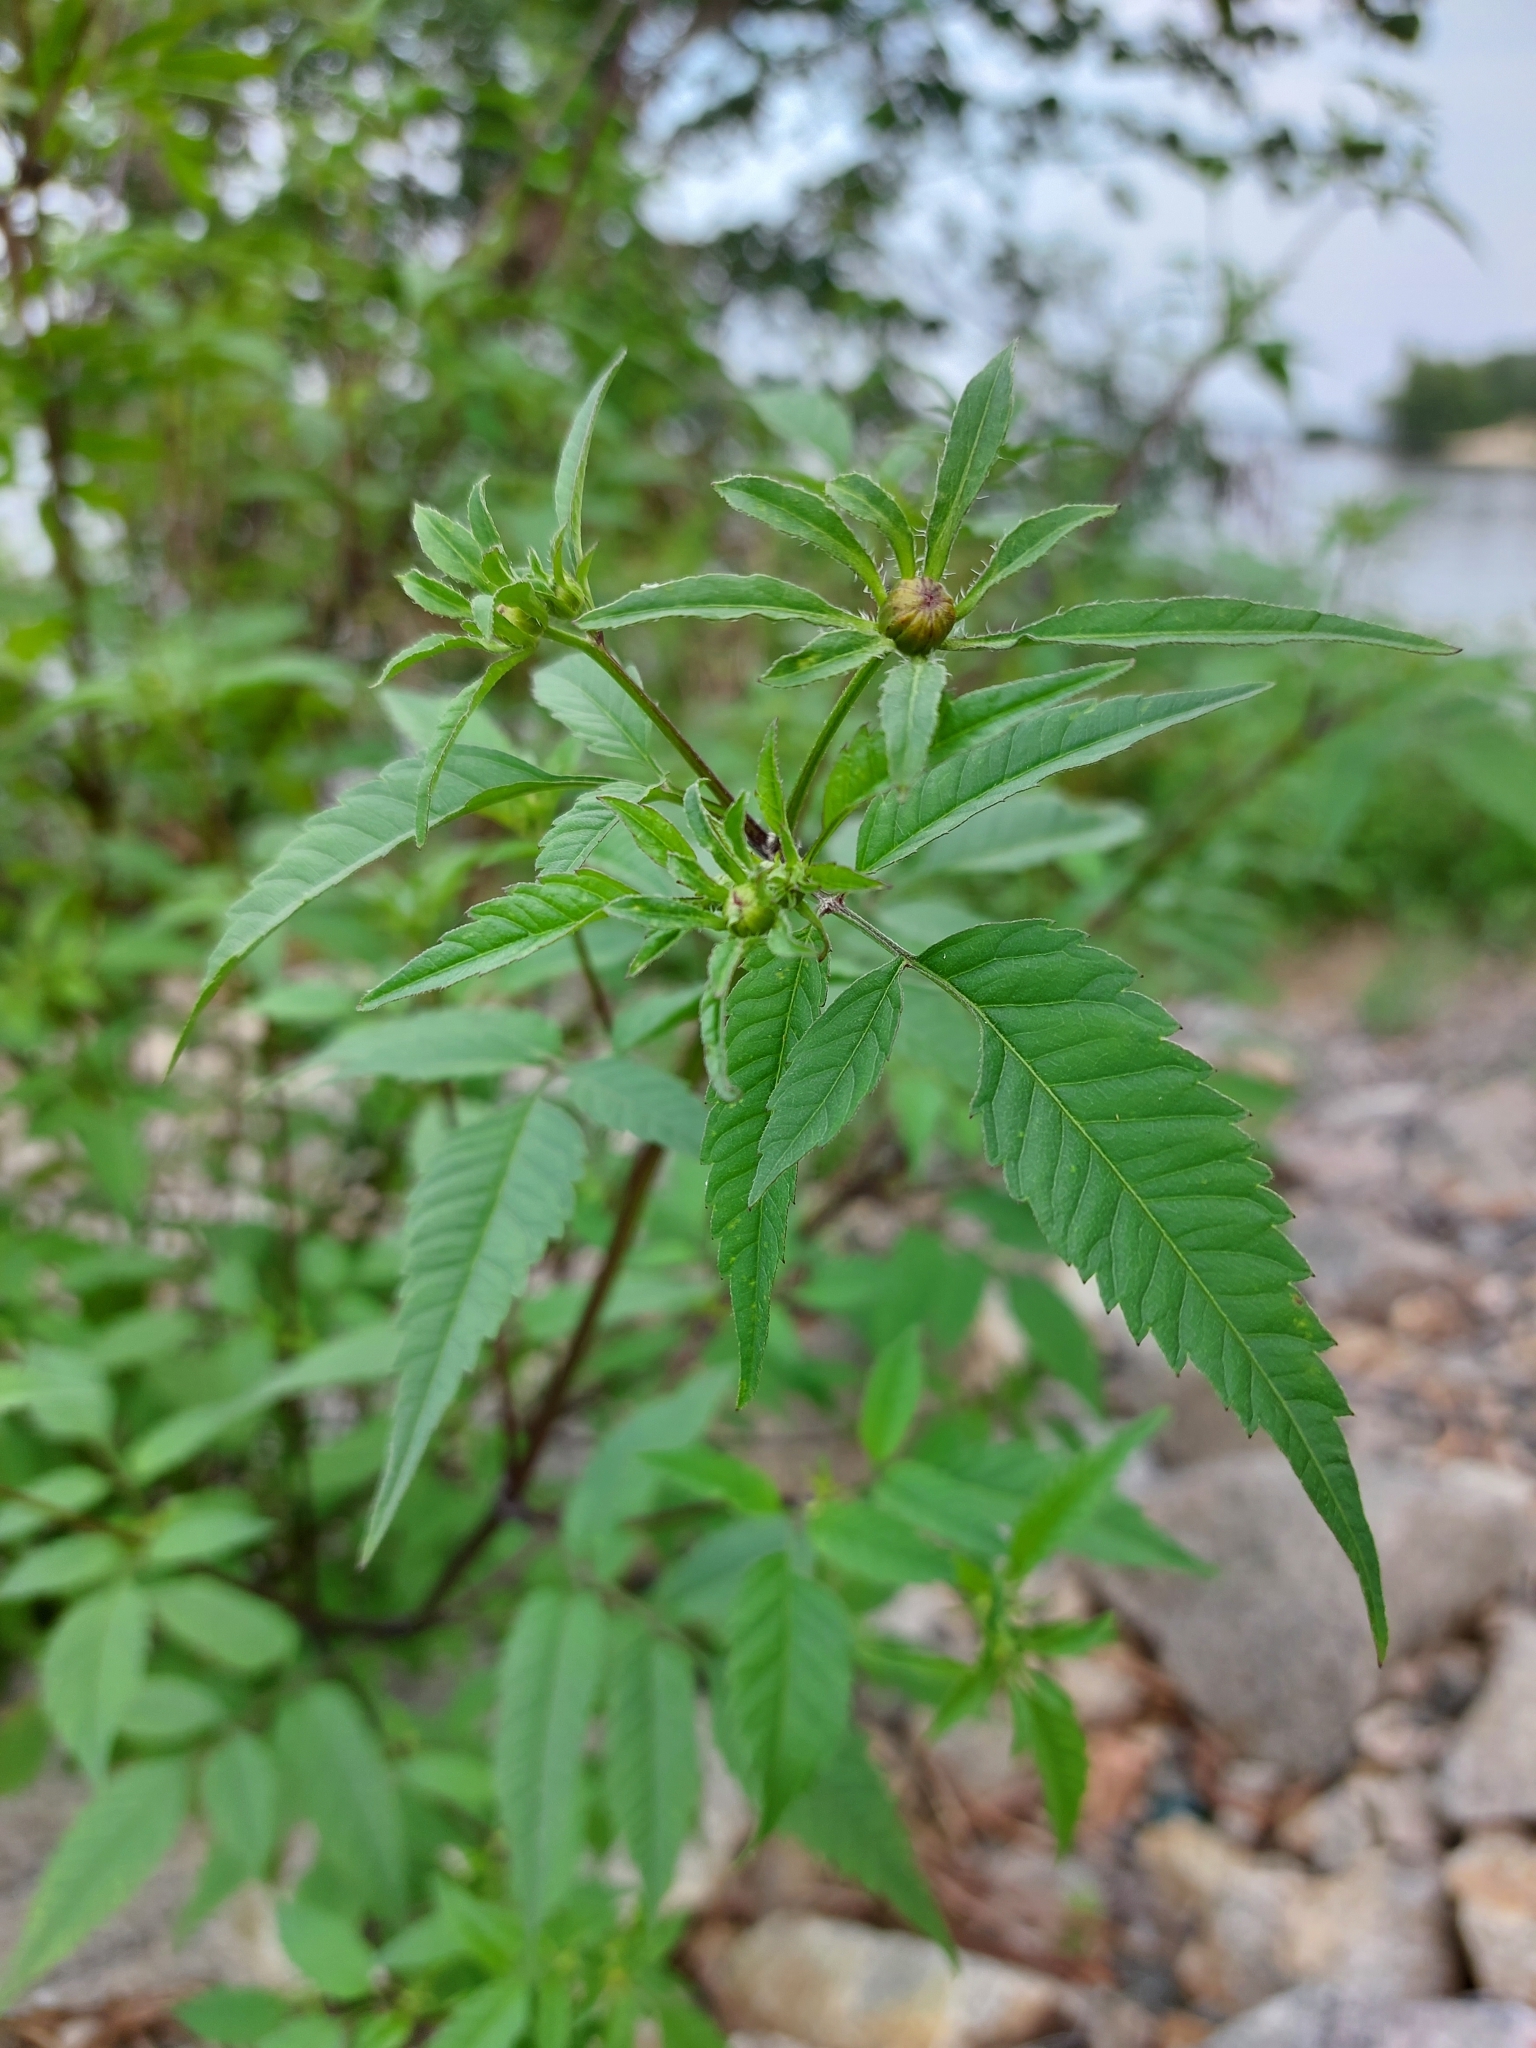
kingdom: Plantae
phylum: Tracheophyta
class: Magnoliopsida
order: Asterales
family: Asteraceae
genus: Bidens
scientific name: Bidens frondosa
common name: Beggarticks
